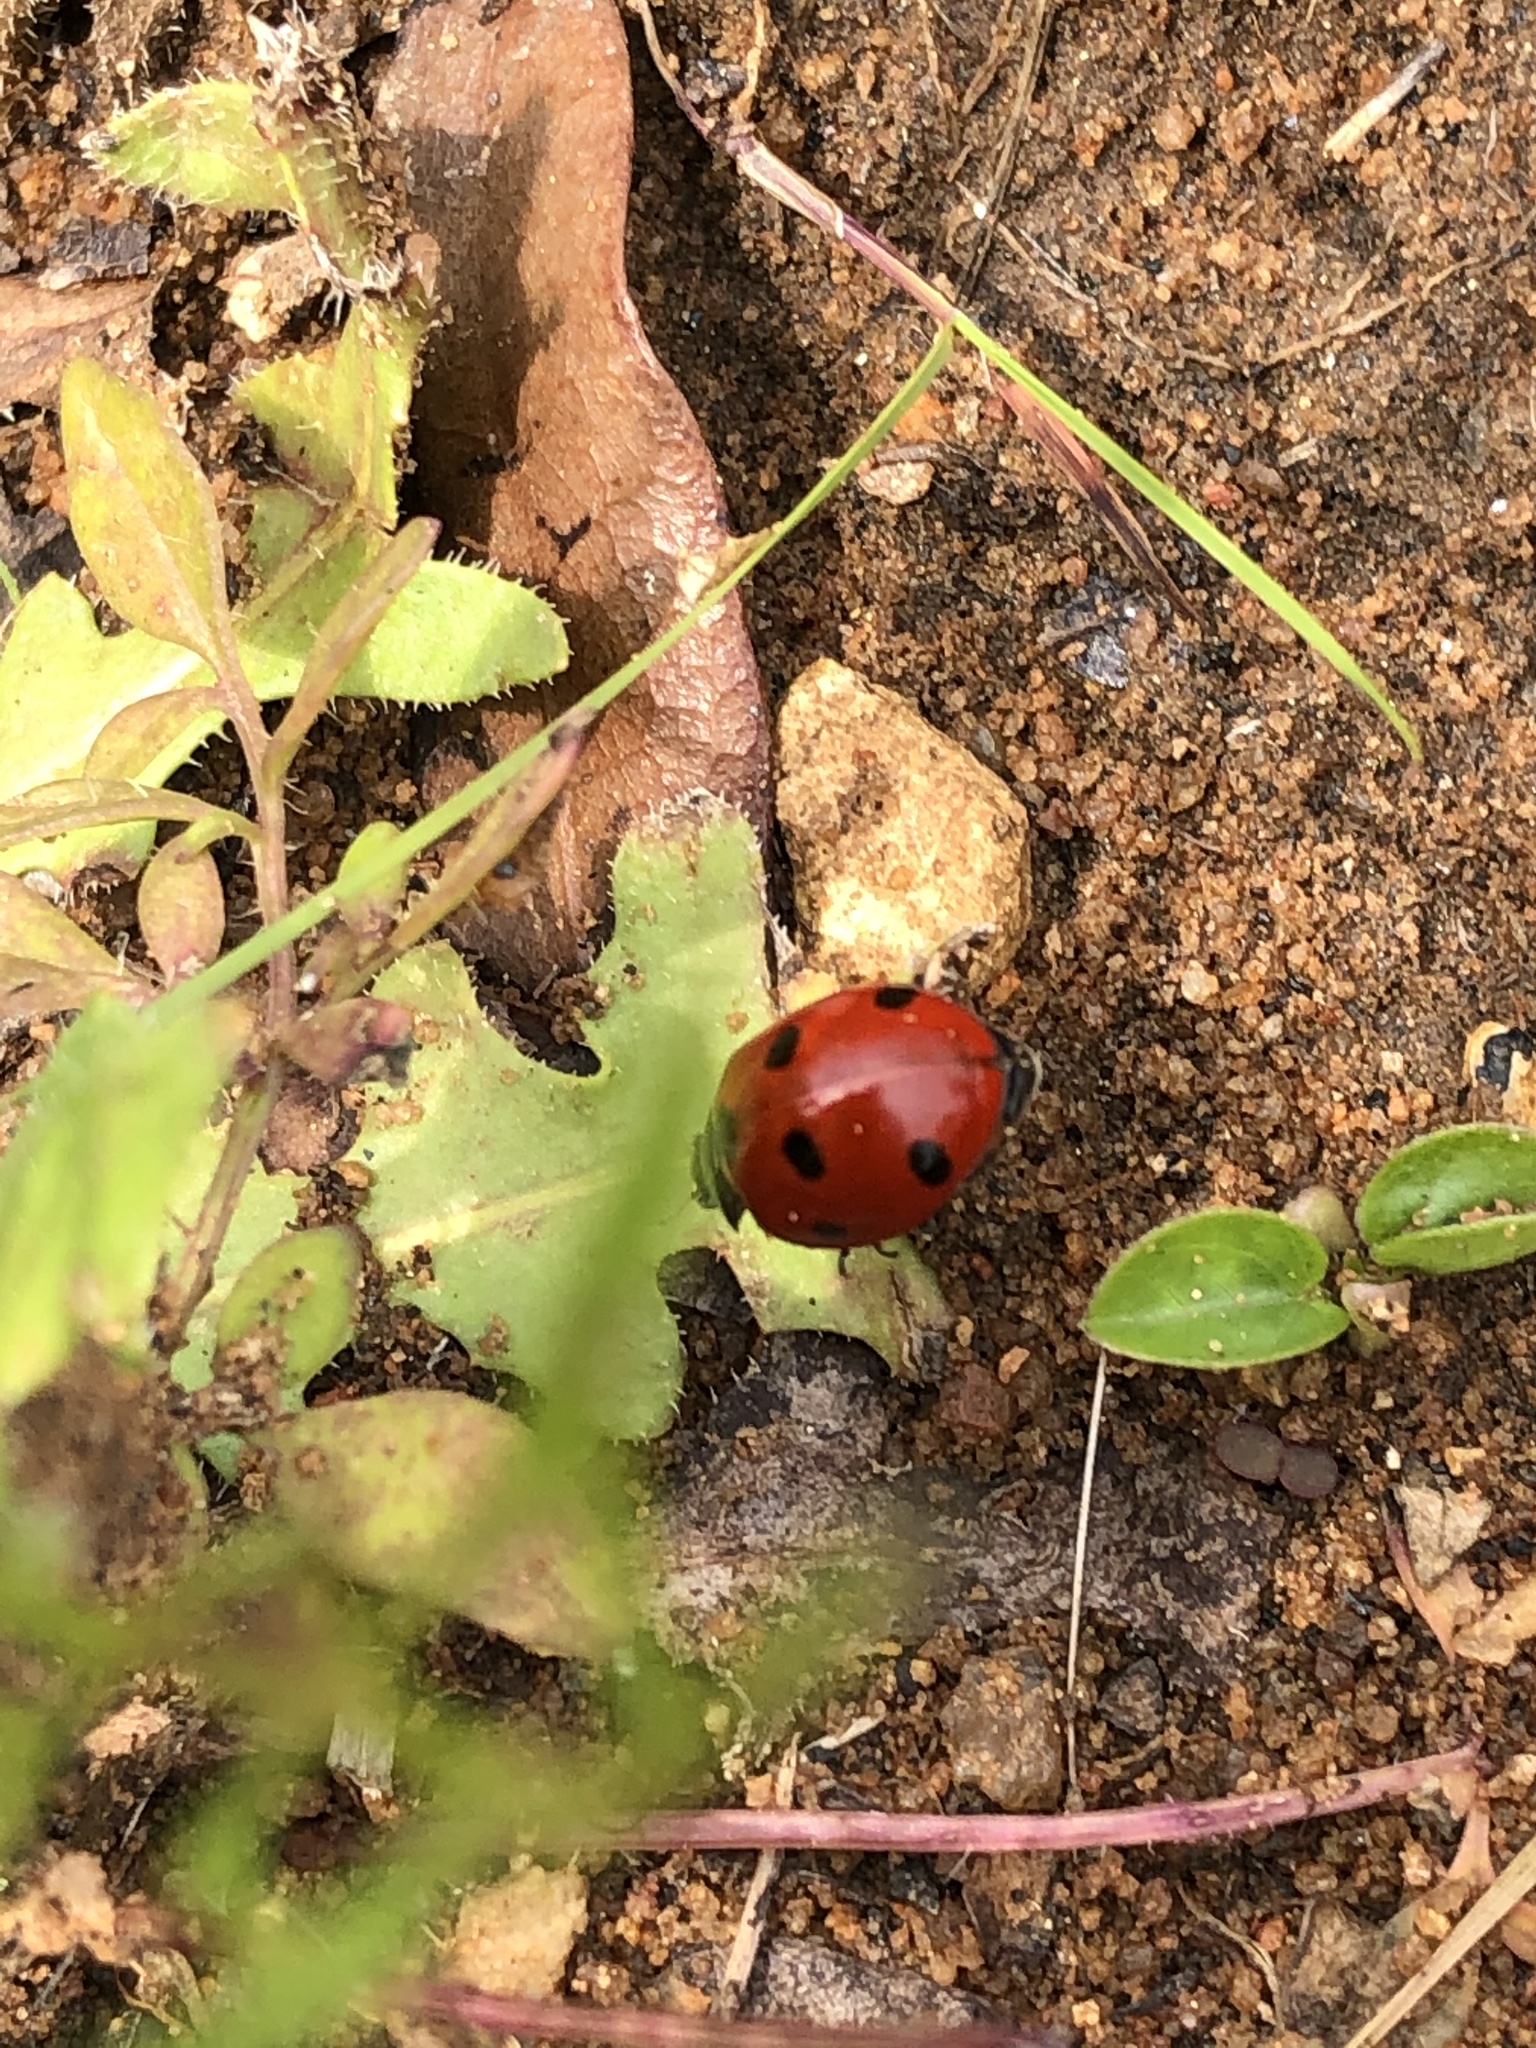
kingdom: Animalia
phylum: Arthropoda
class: Insecta
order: Coleoptera
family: Coccinellidae
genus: Coccinella
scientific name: Coccinella septempunctata
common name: Sevenspotted lady beetle
